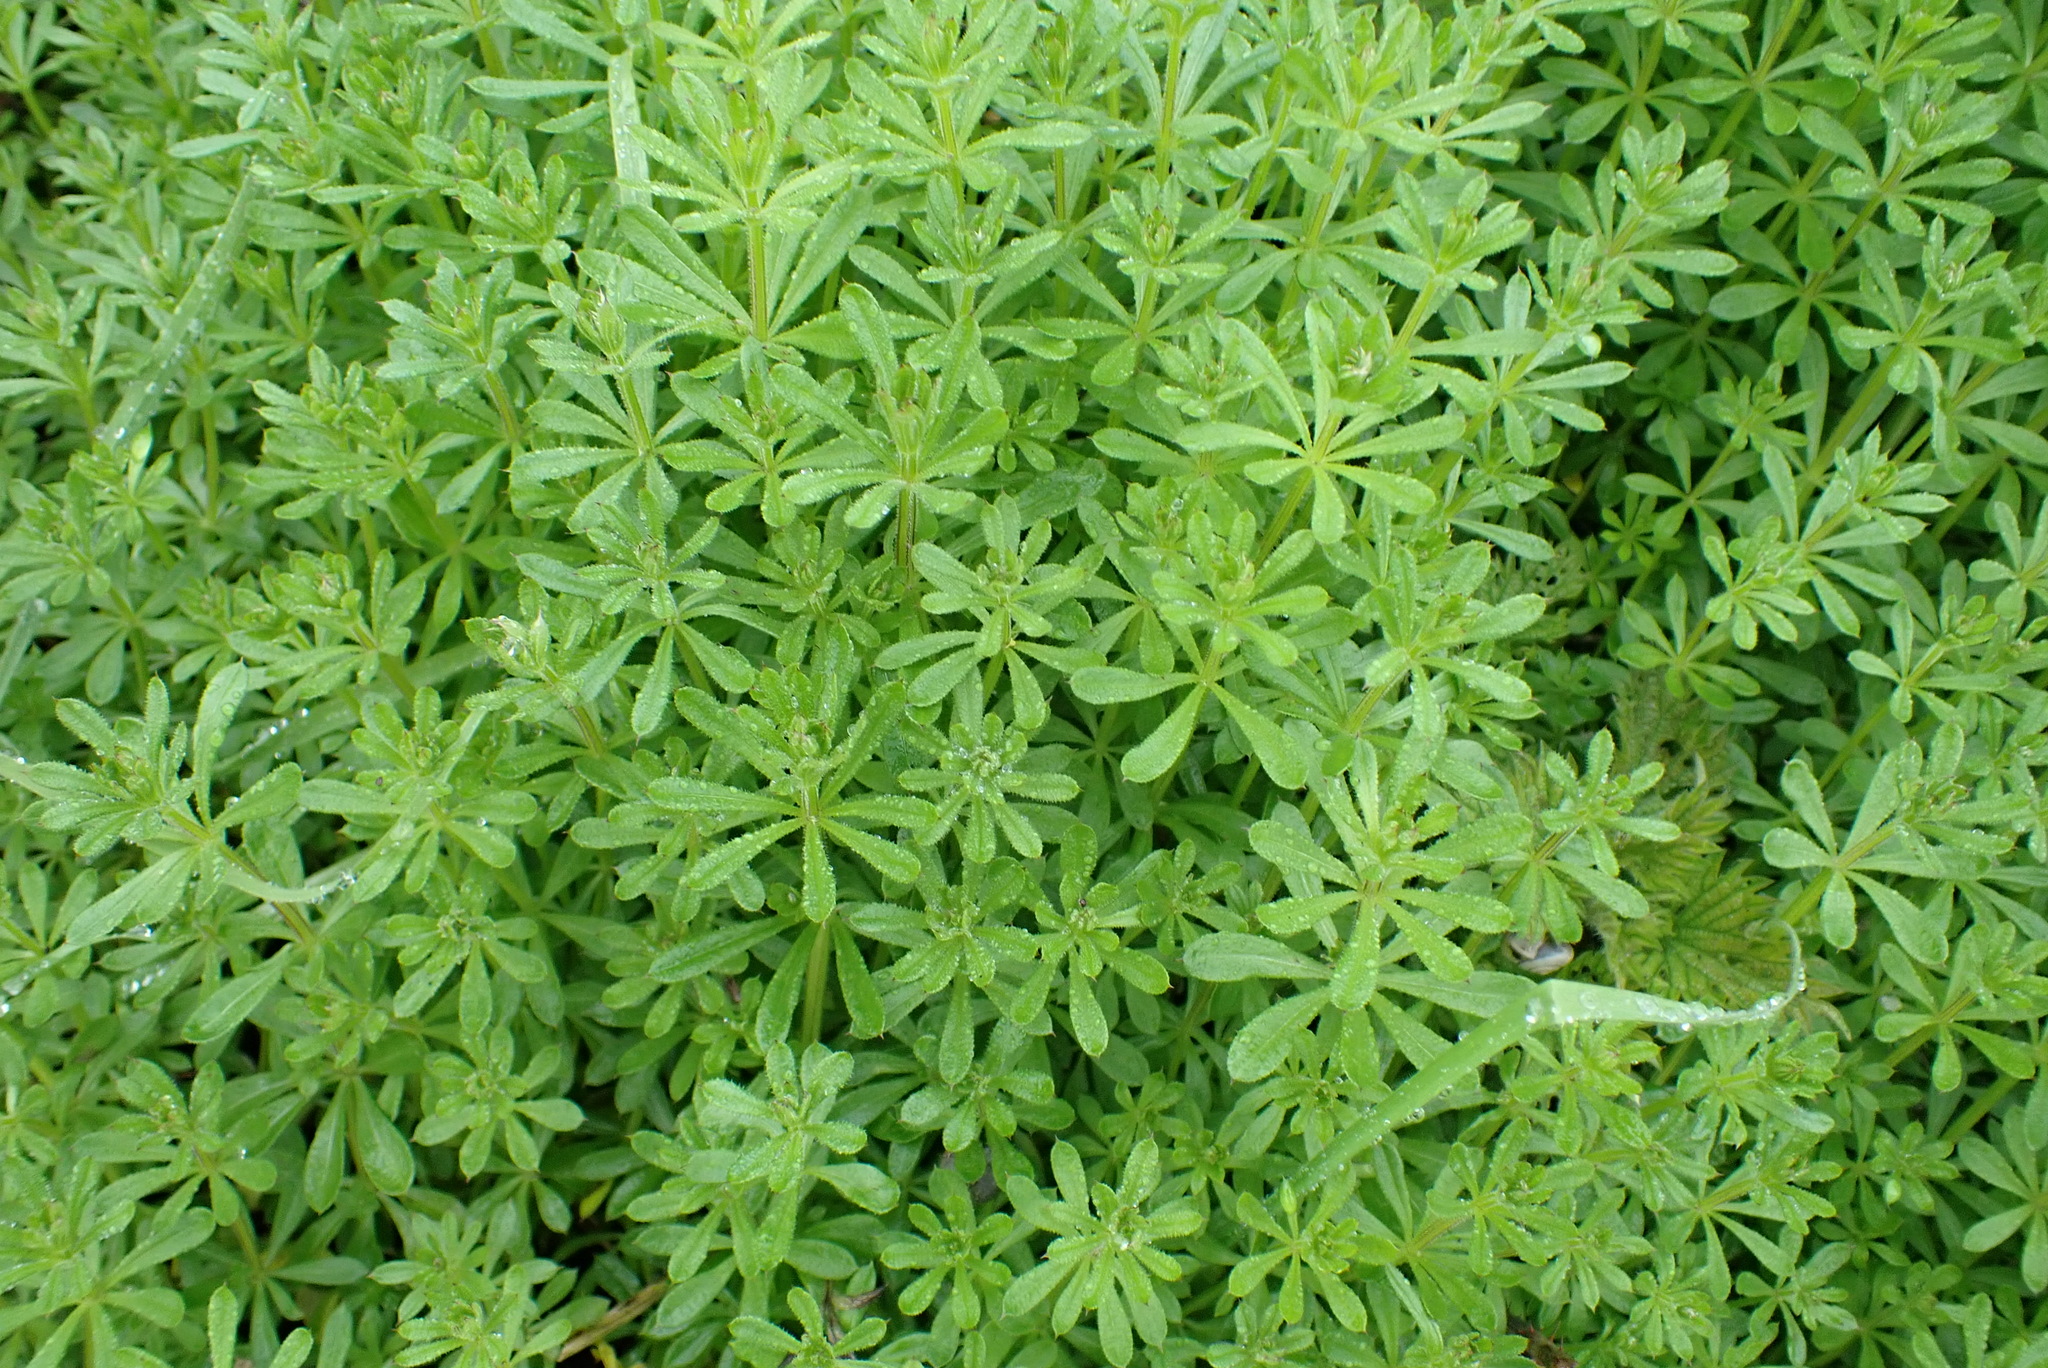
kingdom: Plantae
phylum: Tracheophyta
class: Magnoliopsida
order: Gentianales
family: Rubiaceae
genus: Galium
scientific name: Galium aparine
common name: Cleavers
